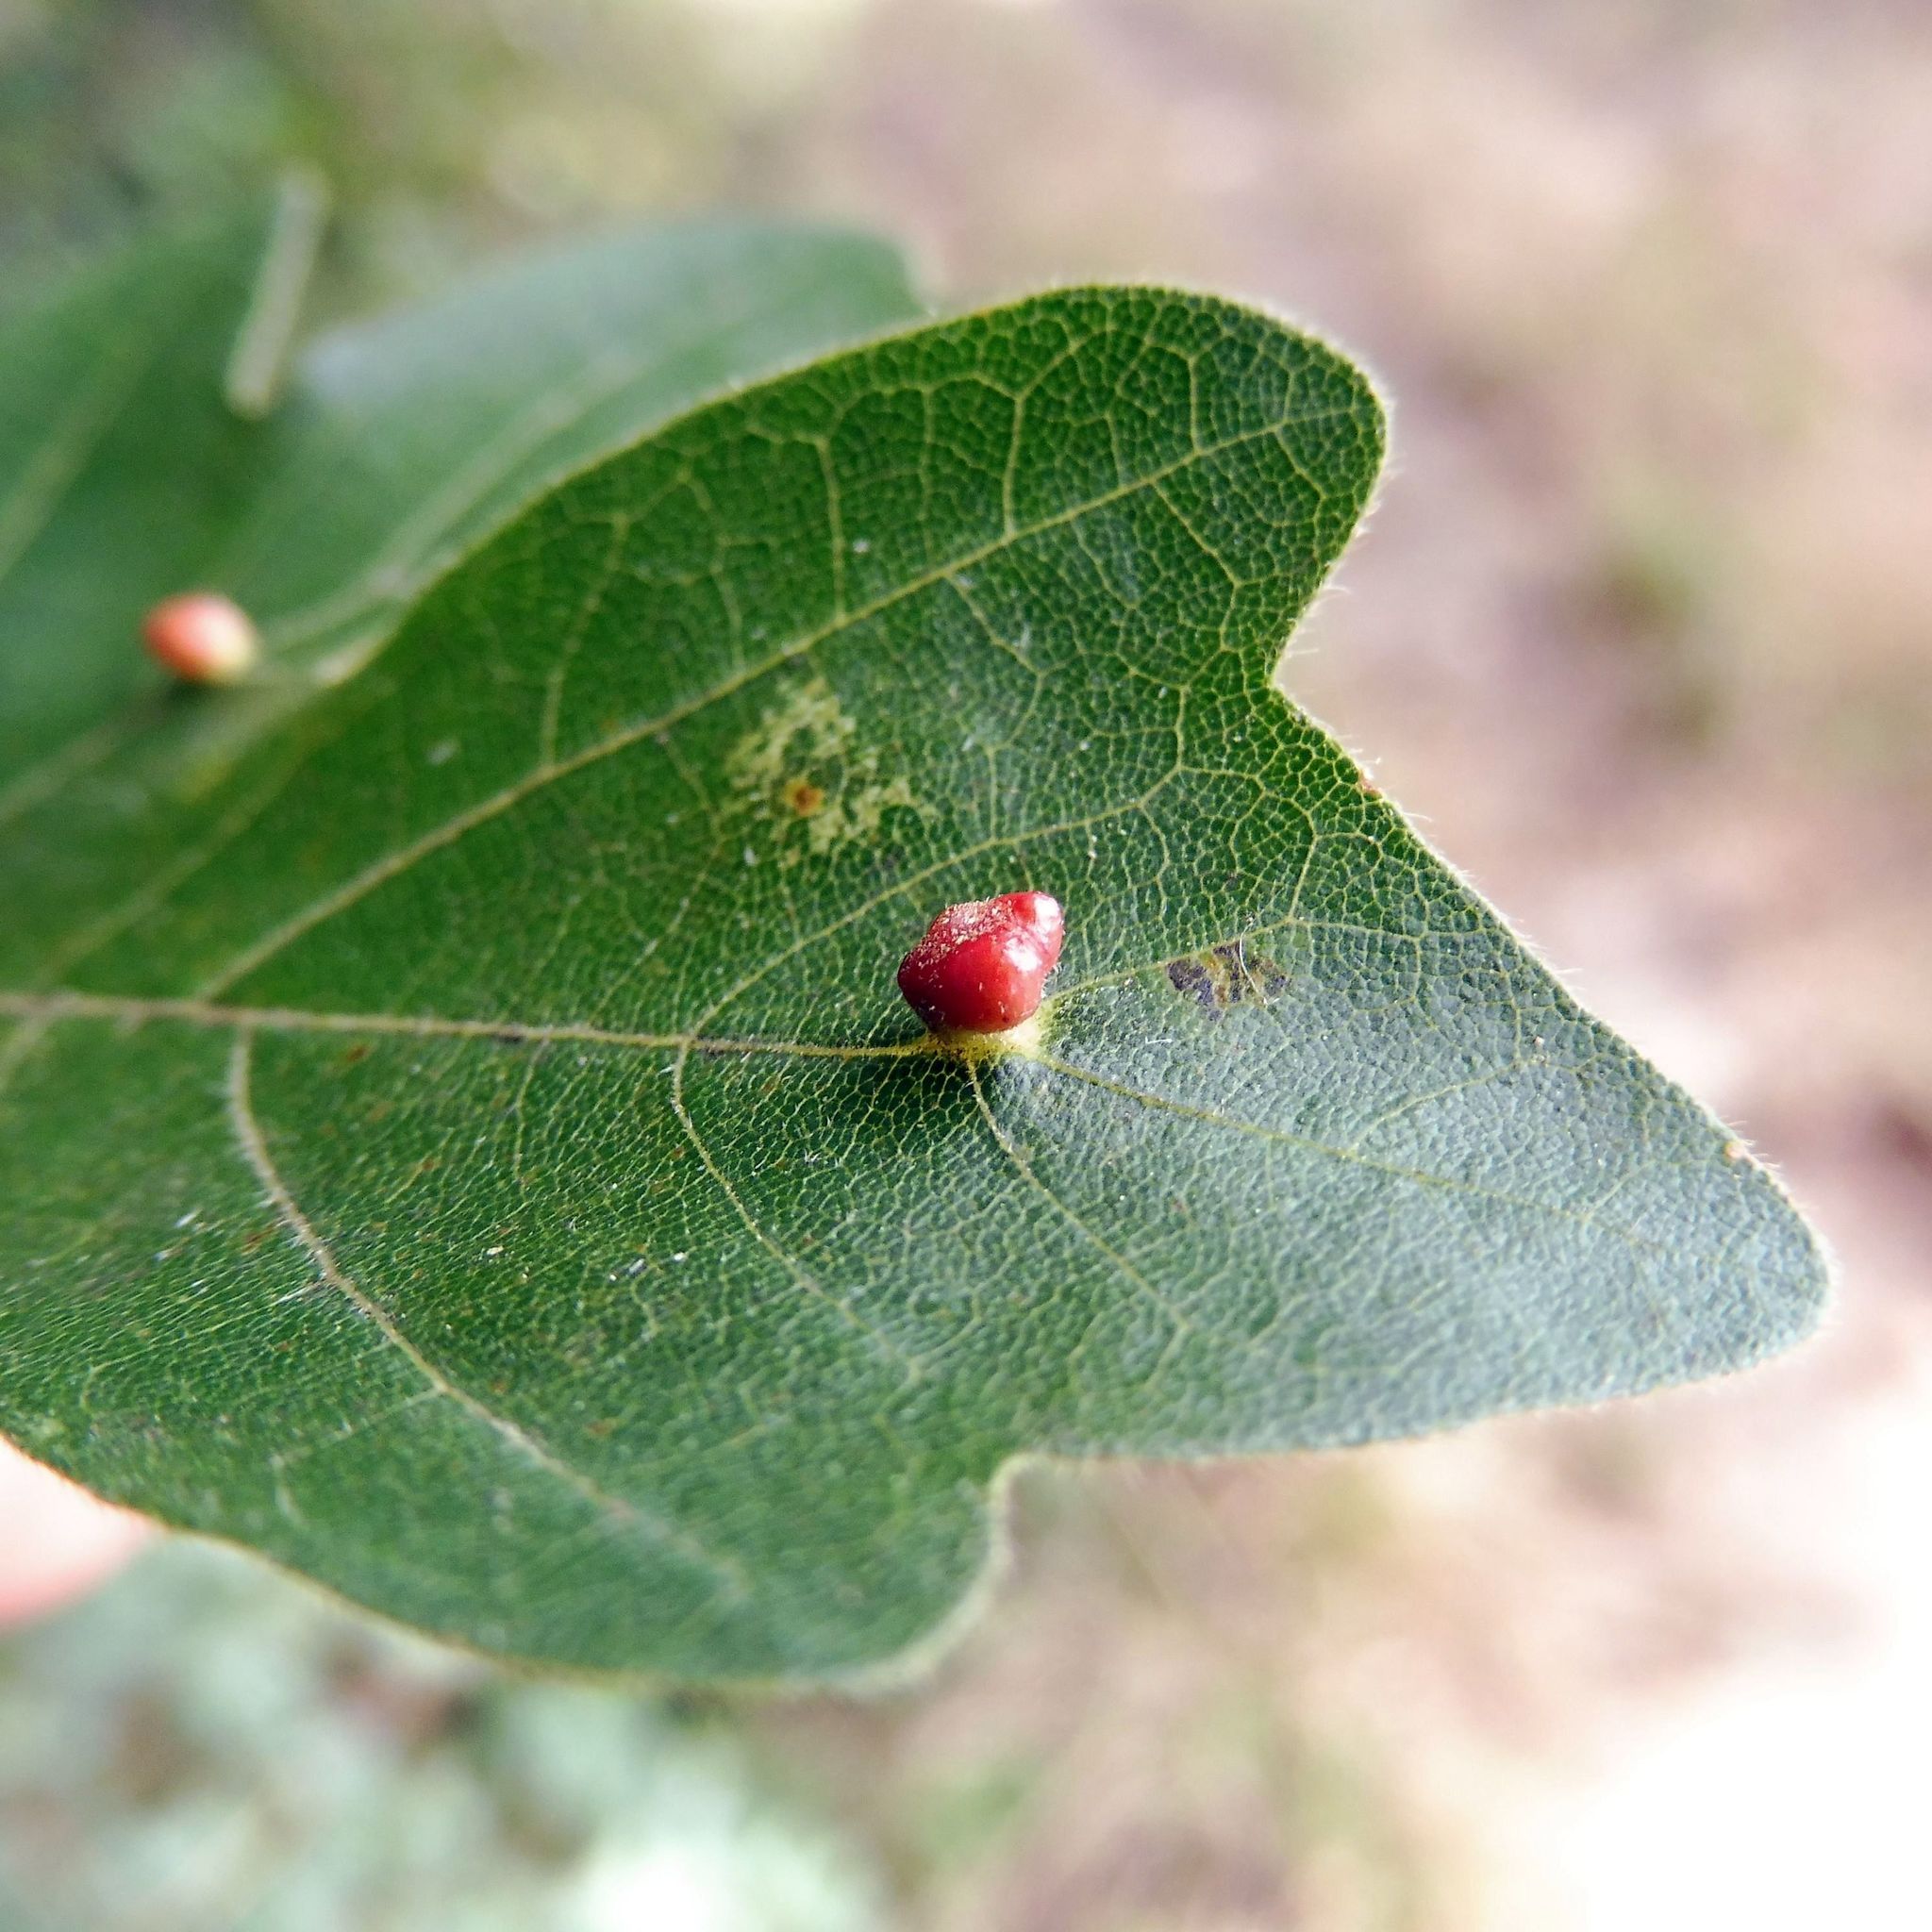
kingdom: Animalia
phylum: Arthropoda
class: Arachnida
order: Trombidiformes
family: Eriophyidae
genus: Aceria
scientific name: Aceria macrochelus
